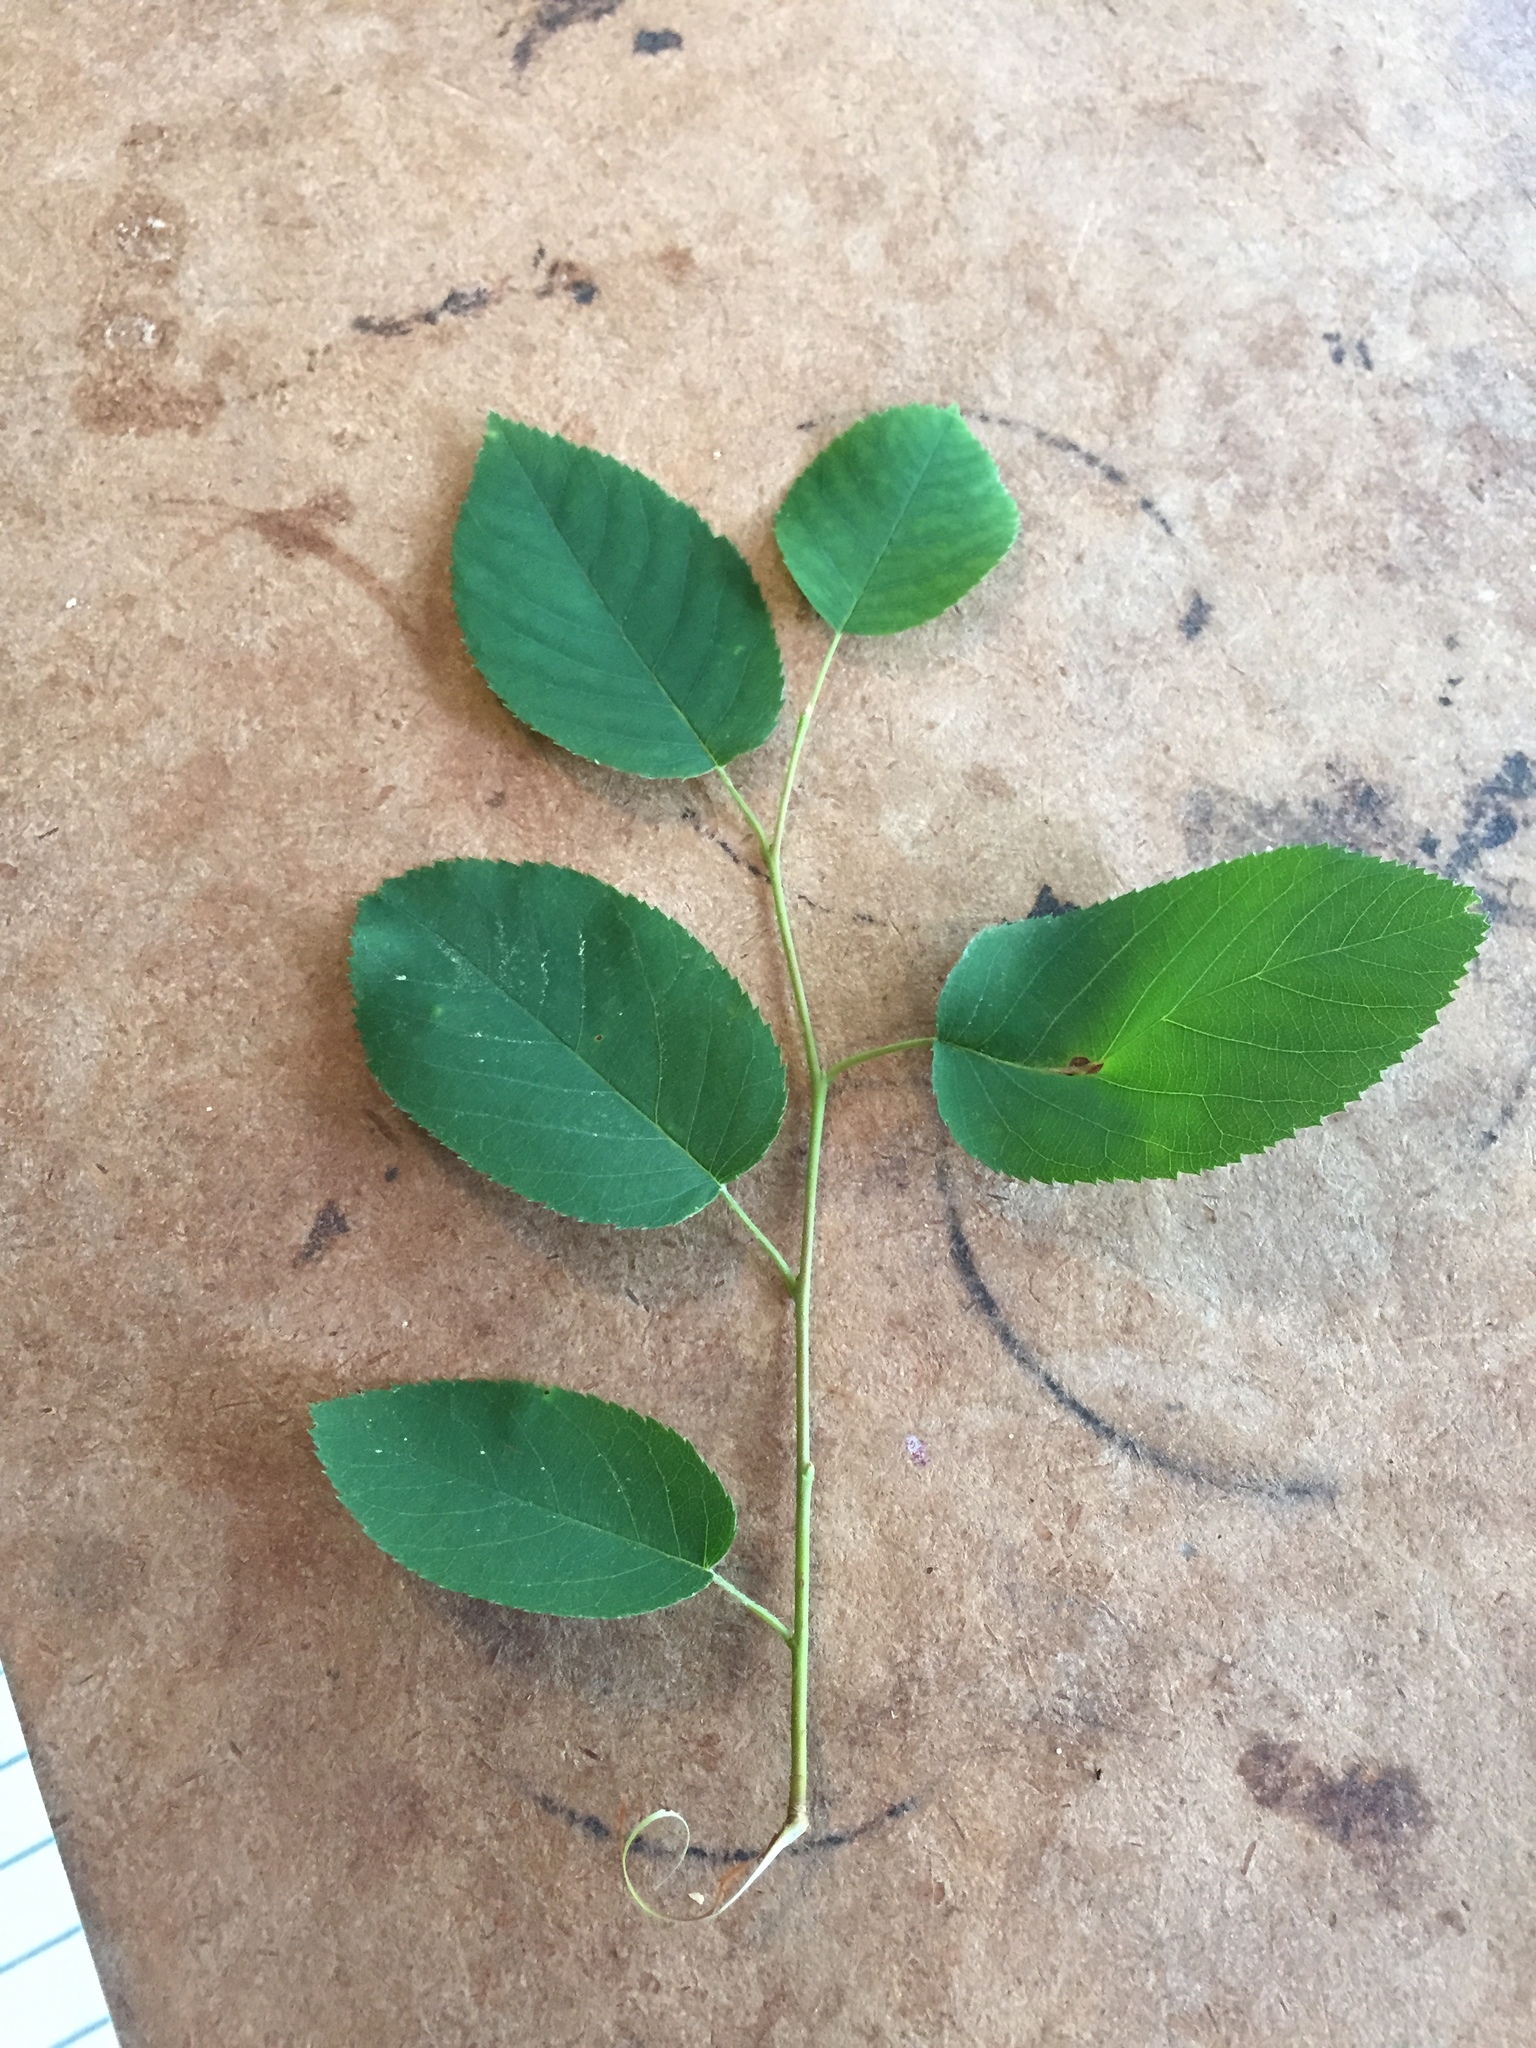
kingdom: Plantae
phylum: Tracheophyta
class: Magnoliopsida
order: Rosales
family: Rosaceae
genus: Amelanchier
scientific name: Amelanchier
